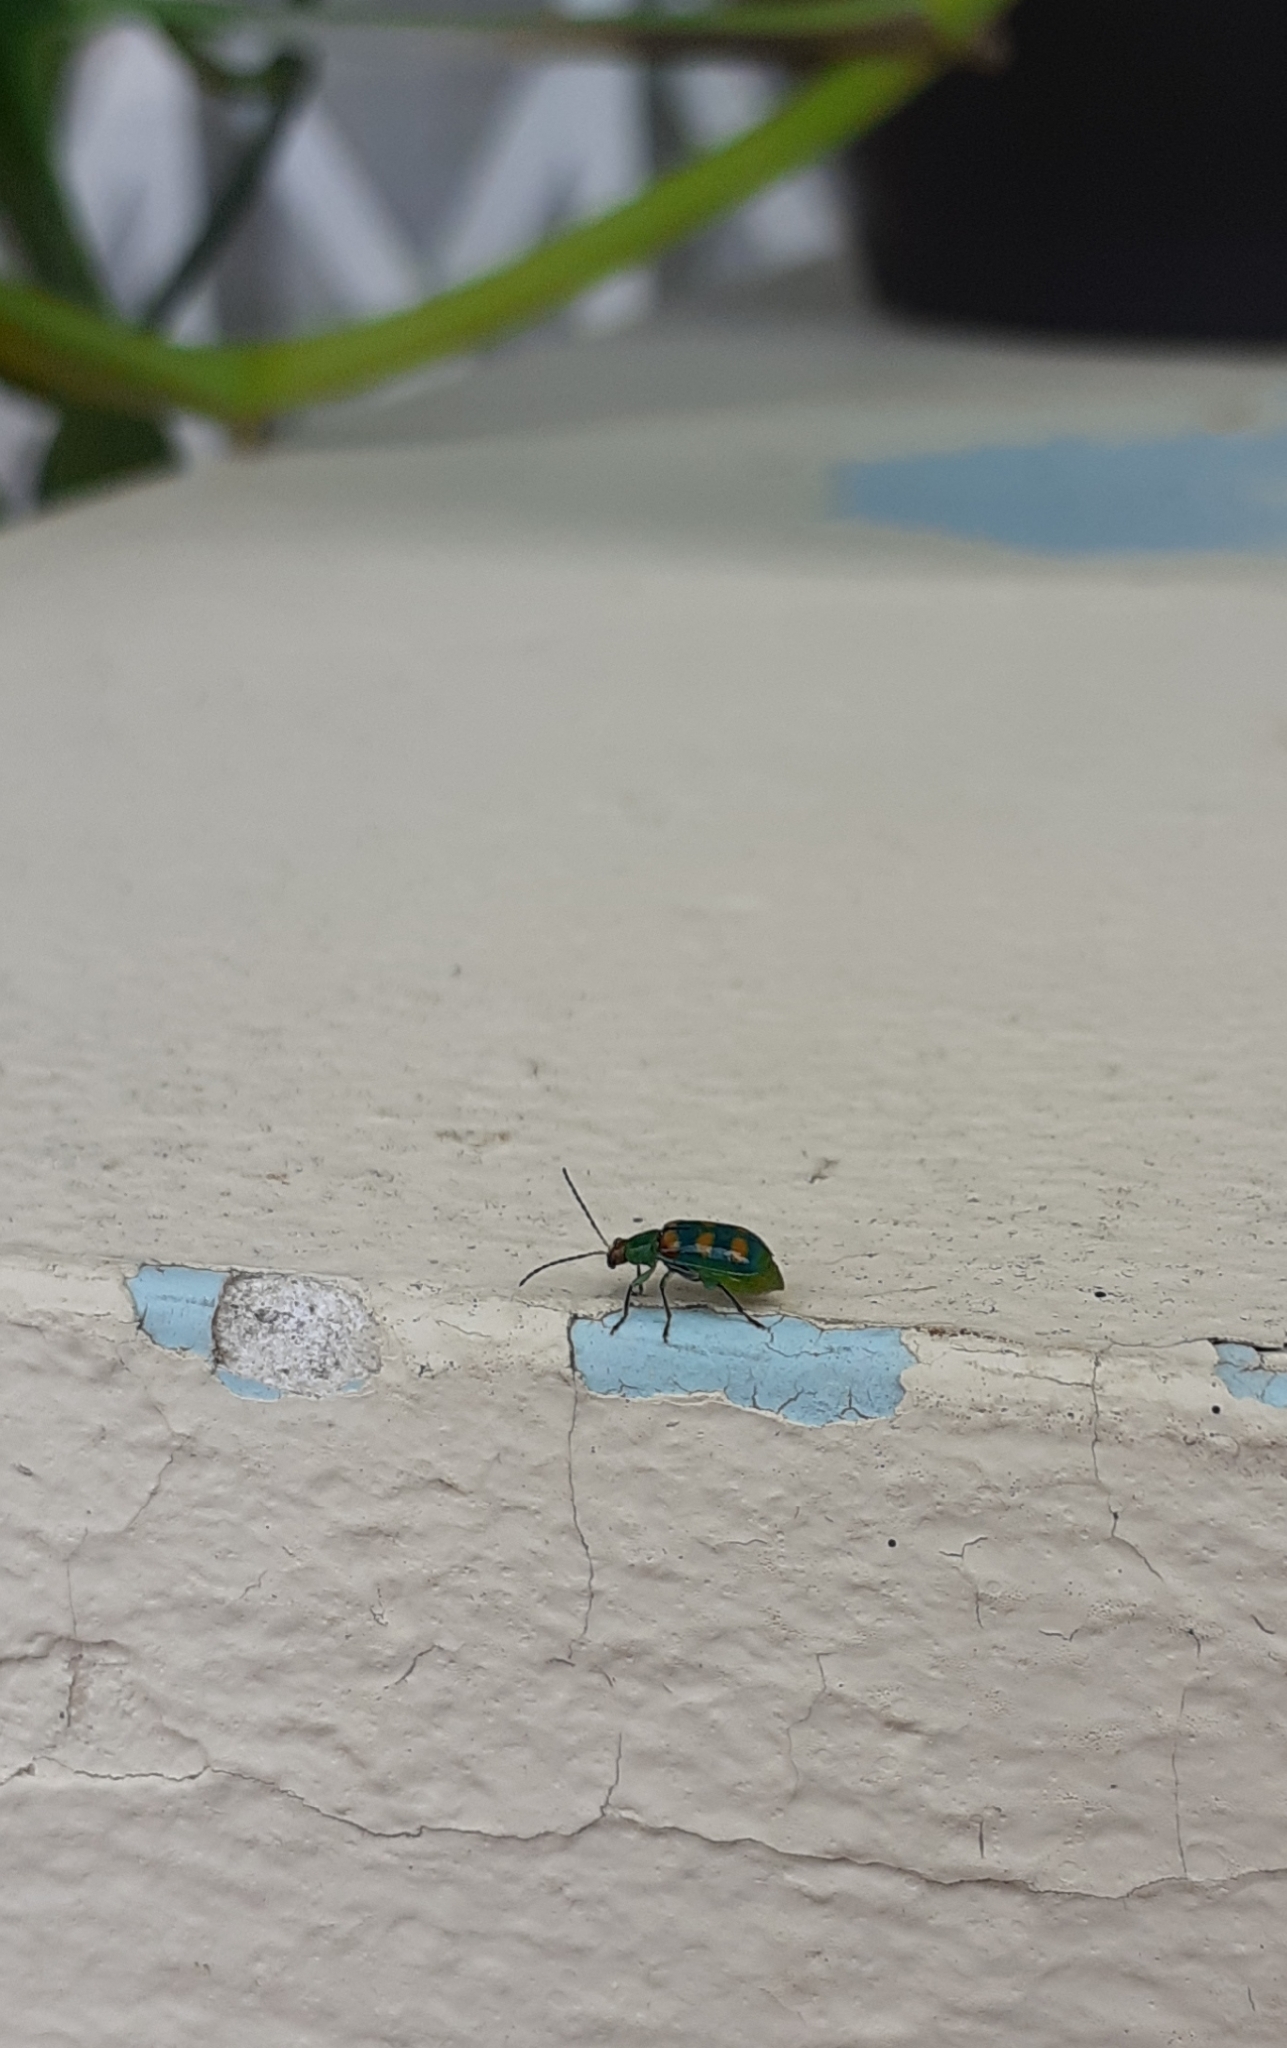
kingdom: Animalia
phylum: Arthropoda
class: Insecta
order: Coleoptera
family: Chrysomelidae
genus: Diabrotica
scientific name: Diabrotica speciosa
